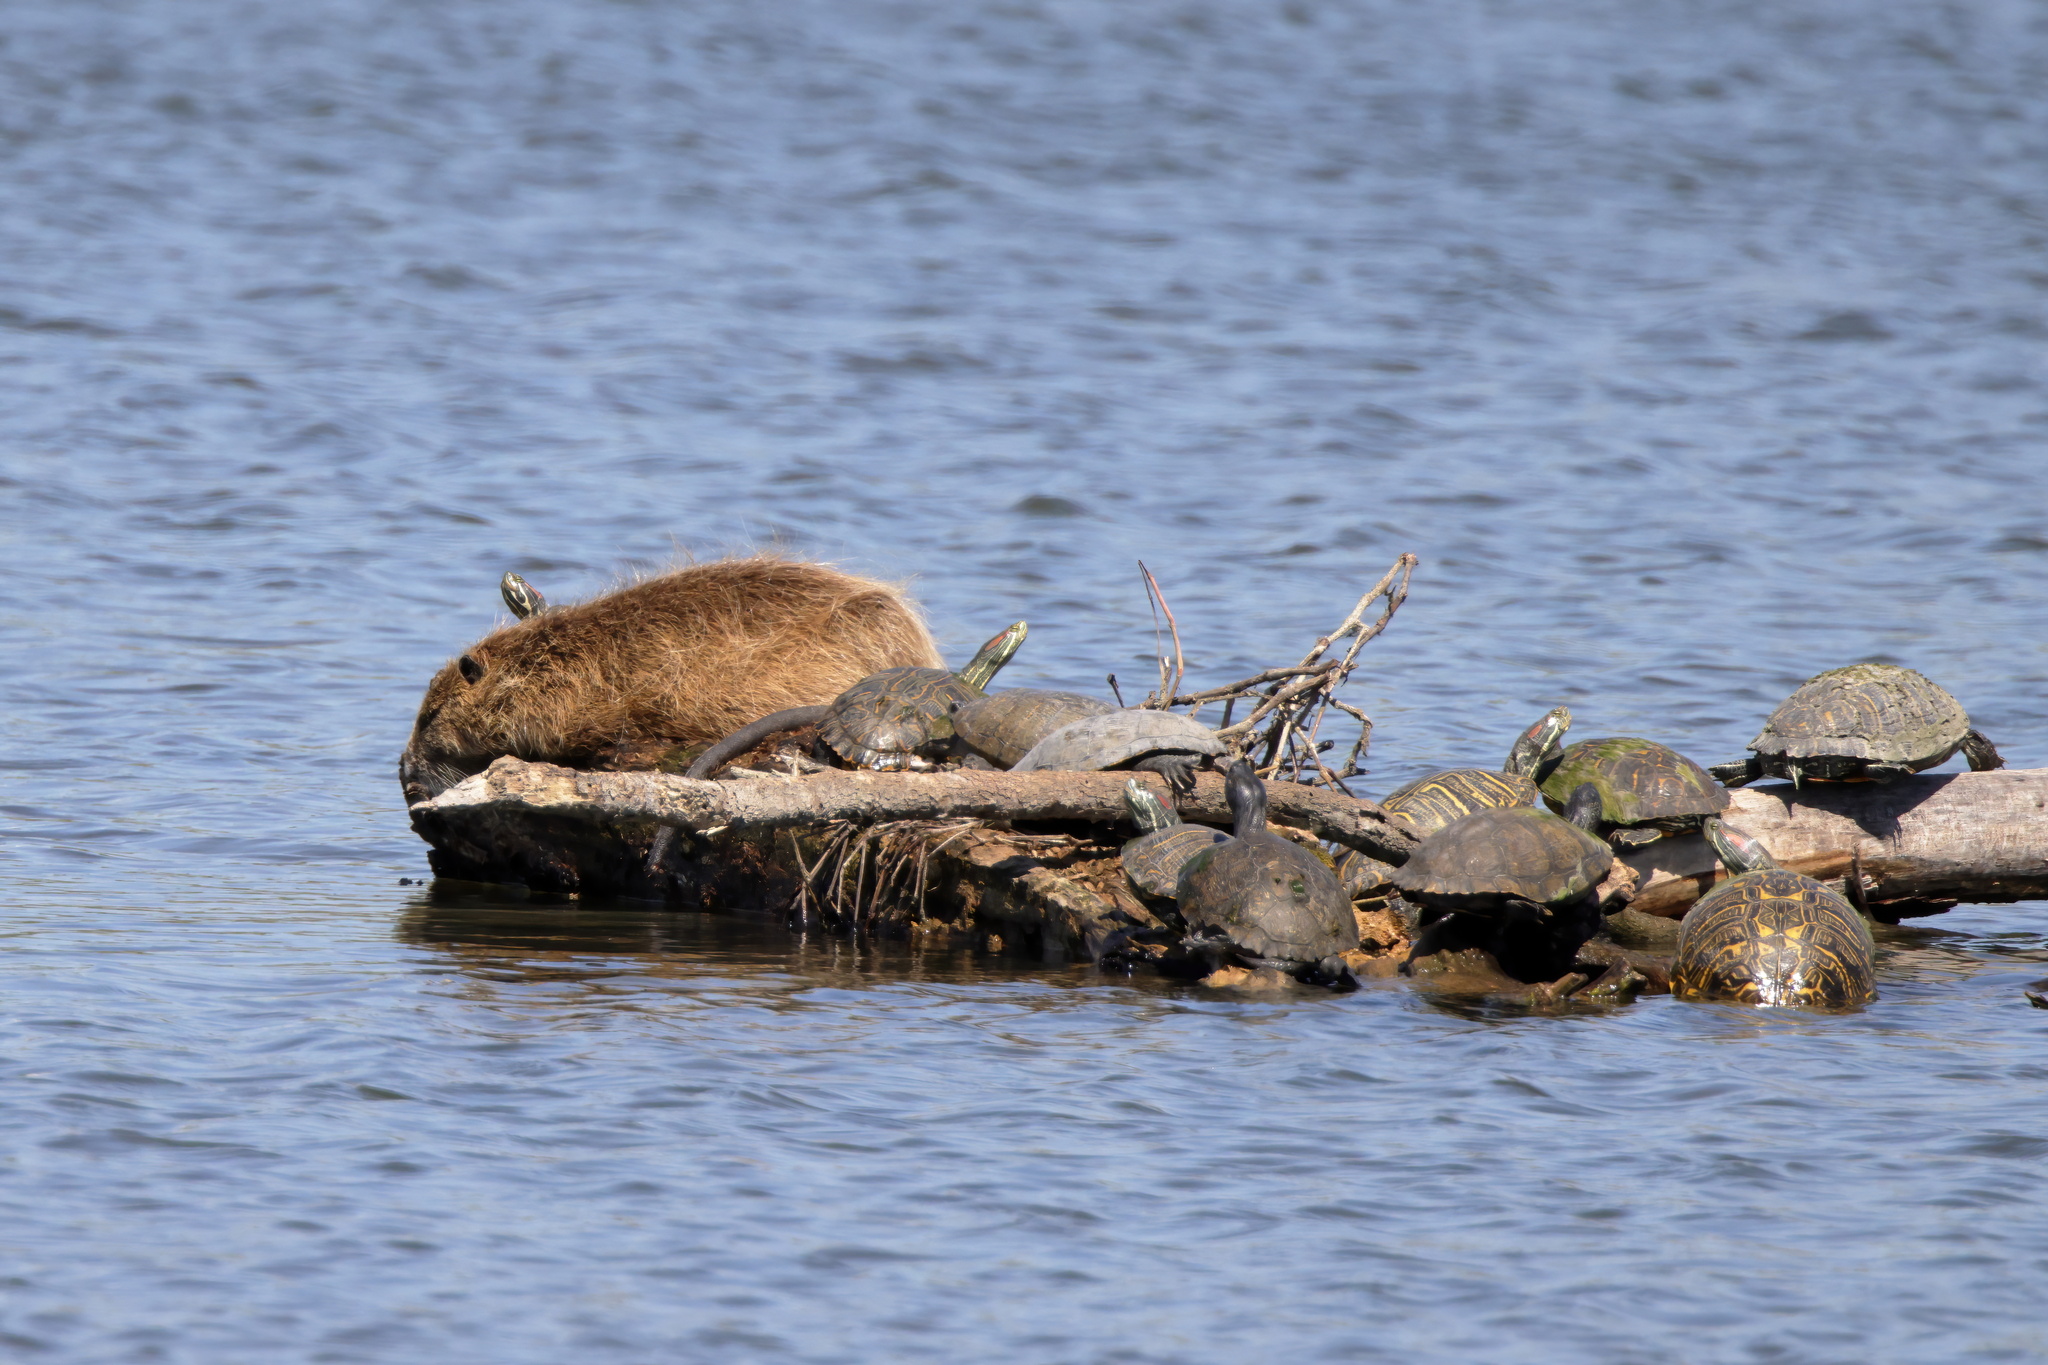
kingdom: Animalia
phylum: Chordata
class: Mammalia
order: Rodentia
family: Myocastoridae
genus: Myocastor
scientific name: Myocastor coypus
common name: Coypu
